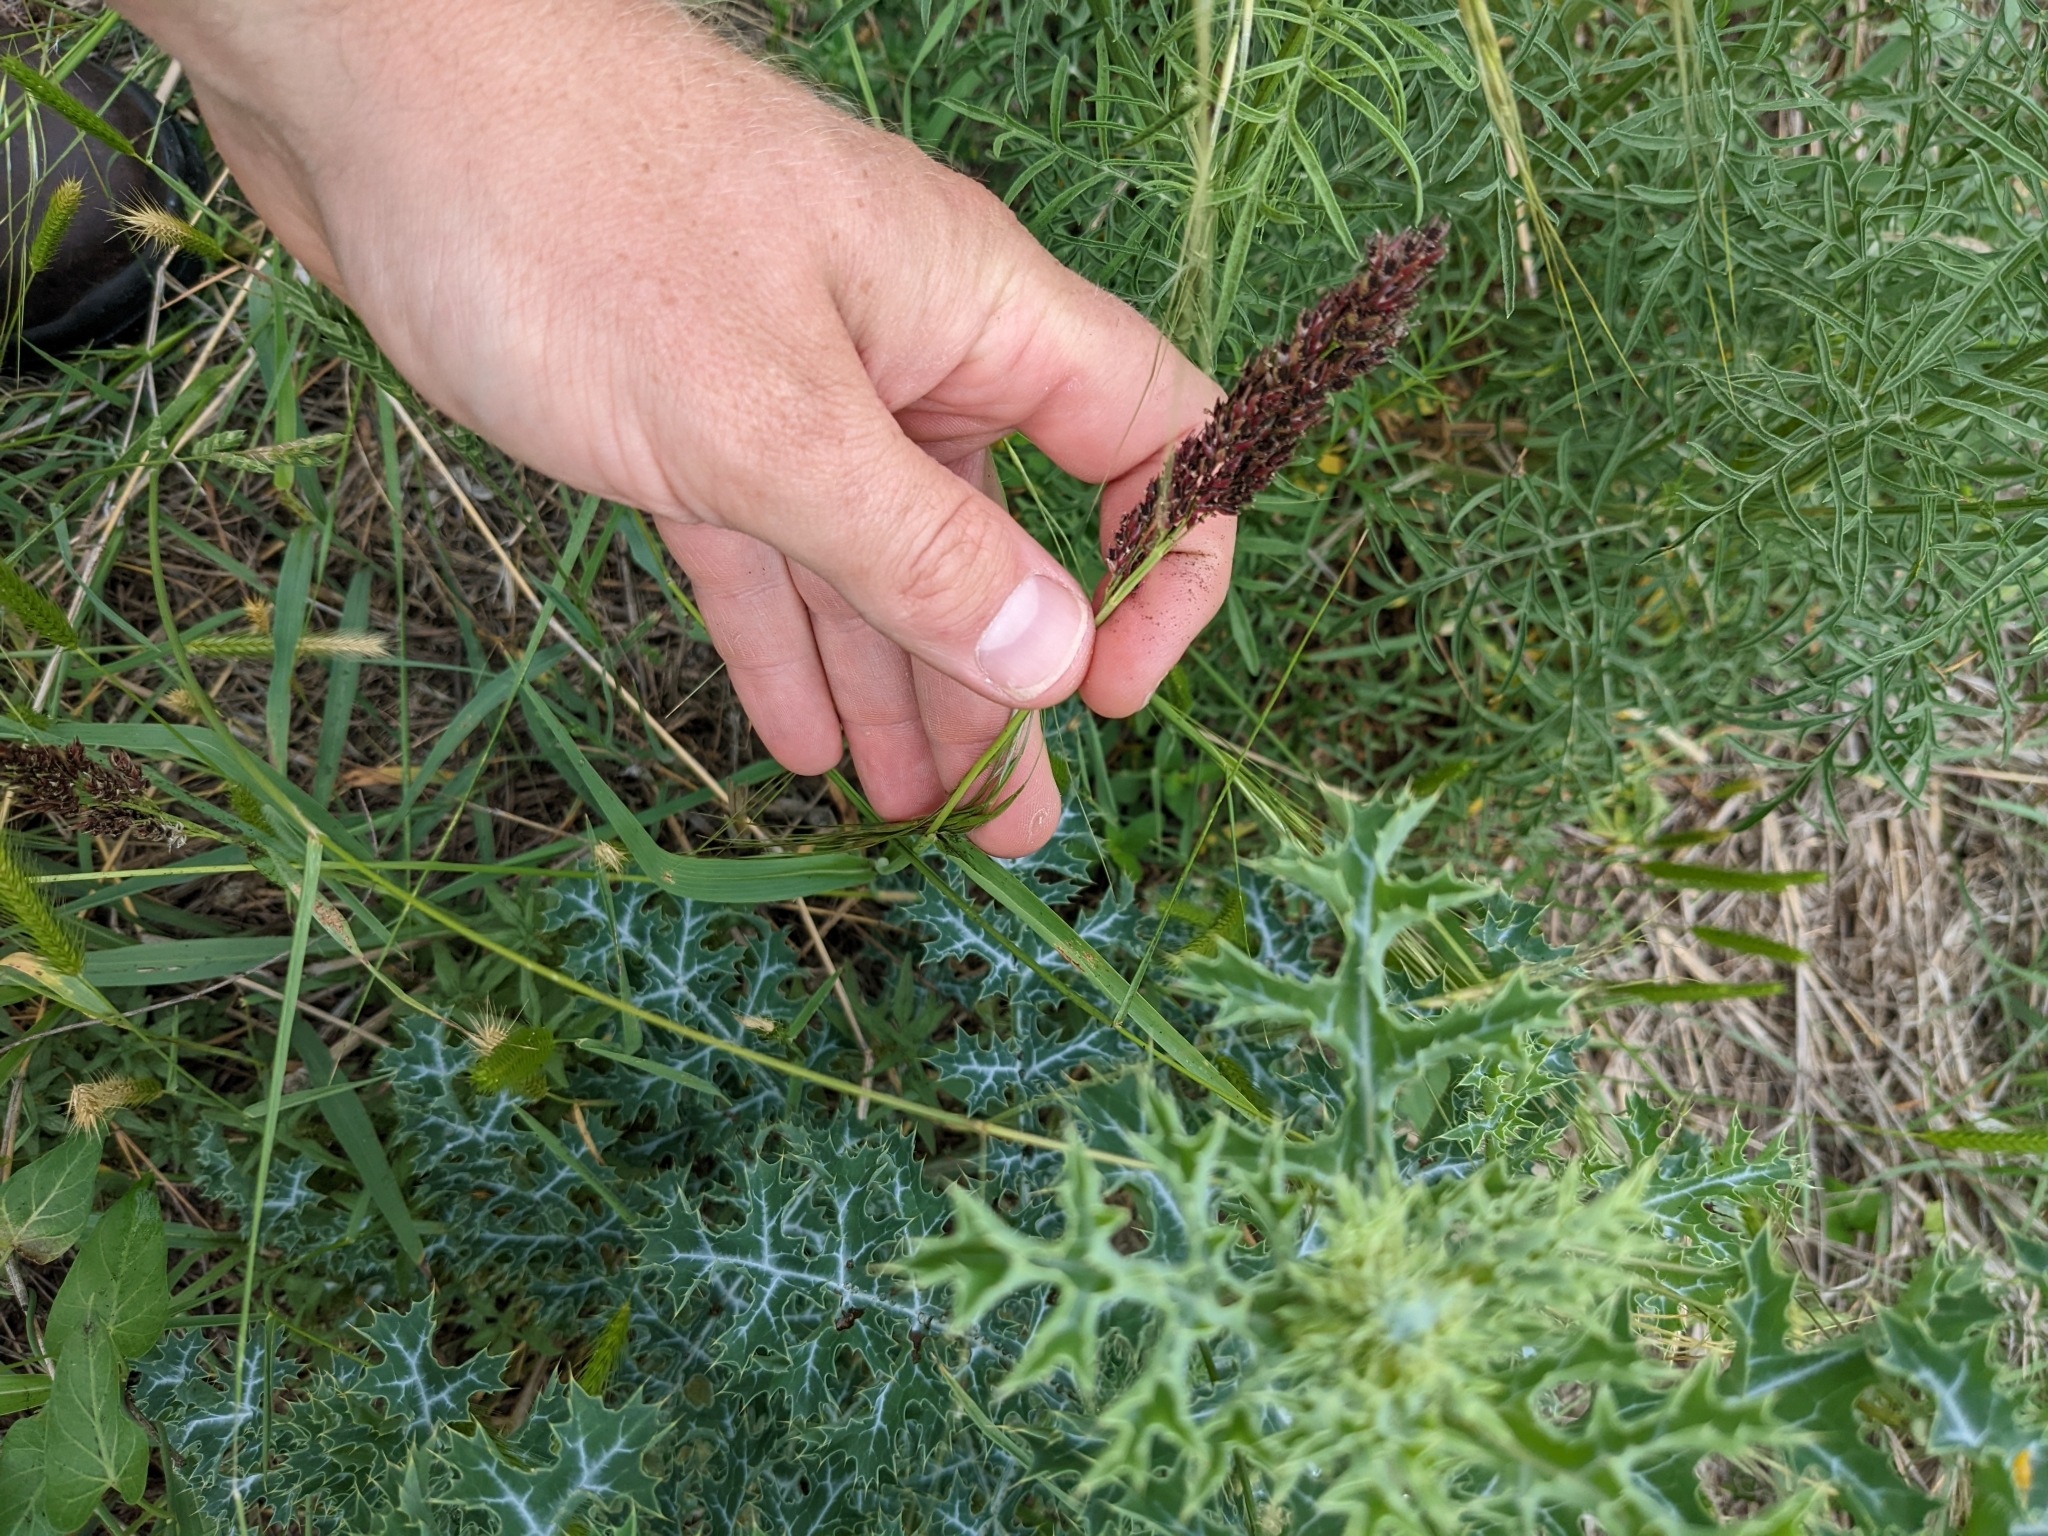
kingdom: Plantae
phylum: Tracheophyta
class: Liliopsida
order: Poales
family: Poaceae
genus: Sorghum
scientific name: Sorghum halepense
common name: Johnson-grass
